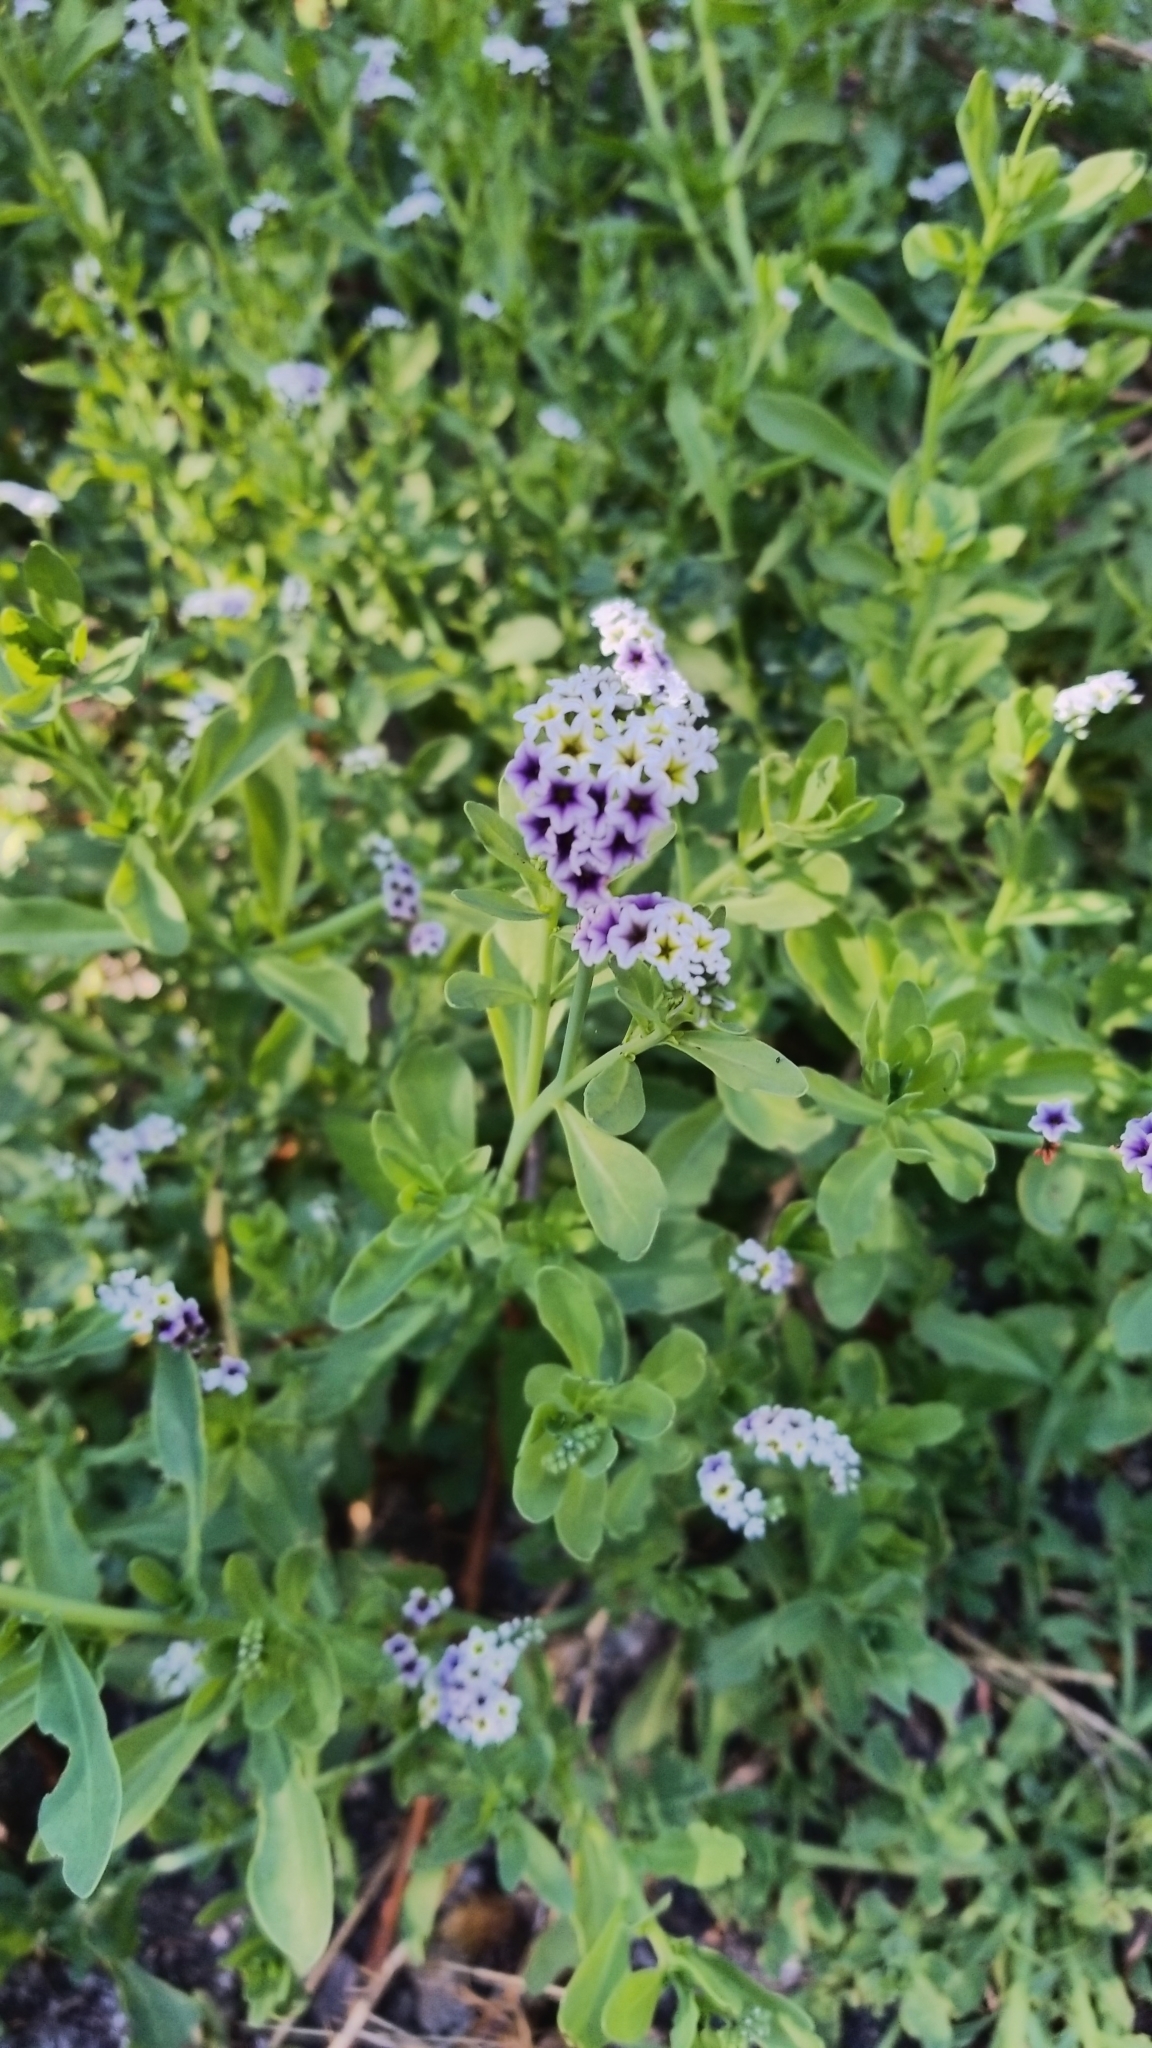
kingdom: Plantae
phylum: Tracheophyta
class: Magnoliopsida
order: Boraginales
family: Heliotropiaceae
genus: Heliotropium
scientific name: Heliotropium curassavicum
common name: Seaside heliotrope
